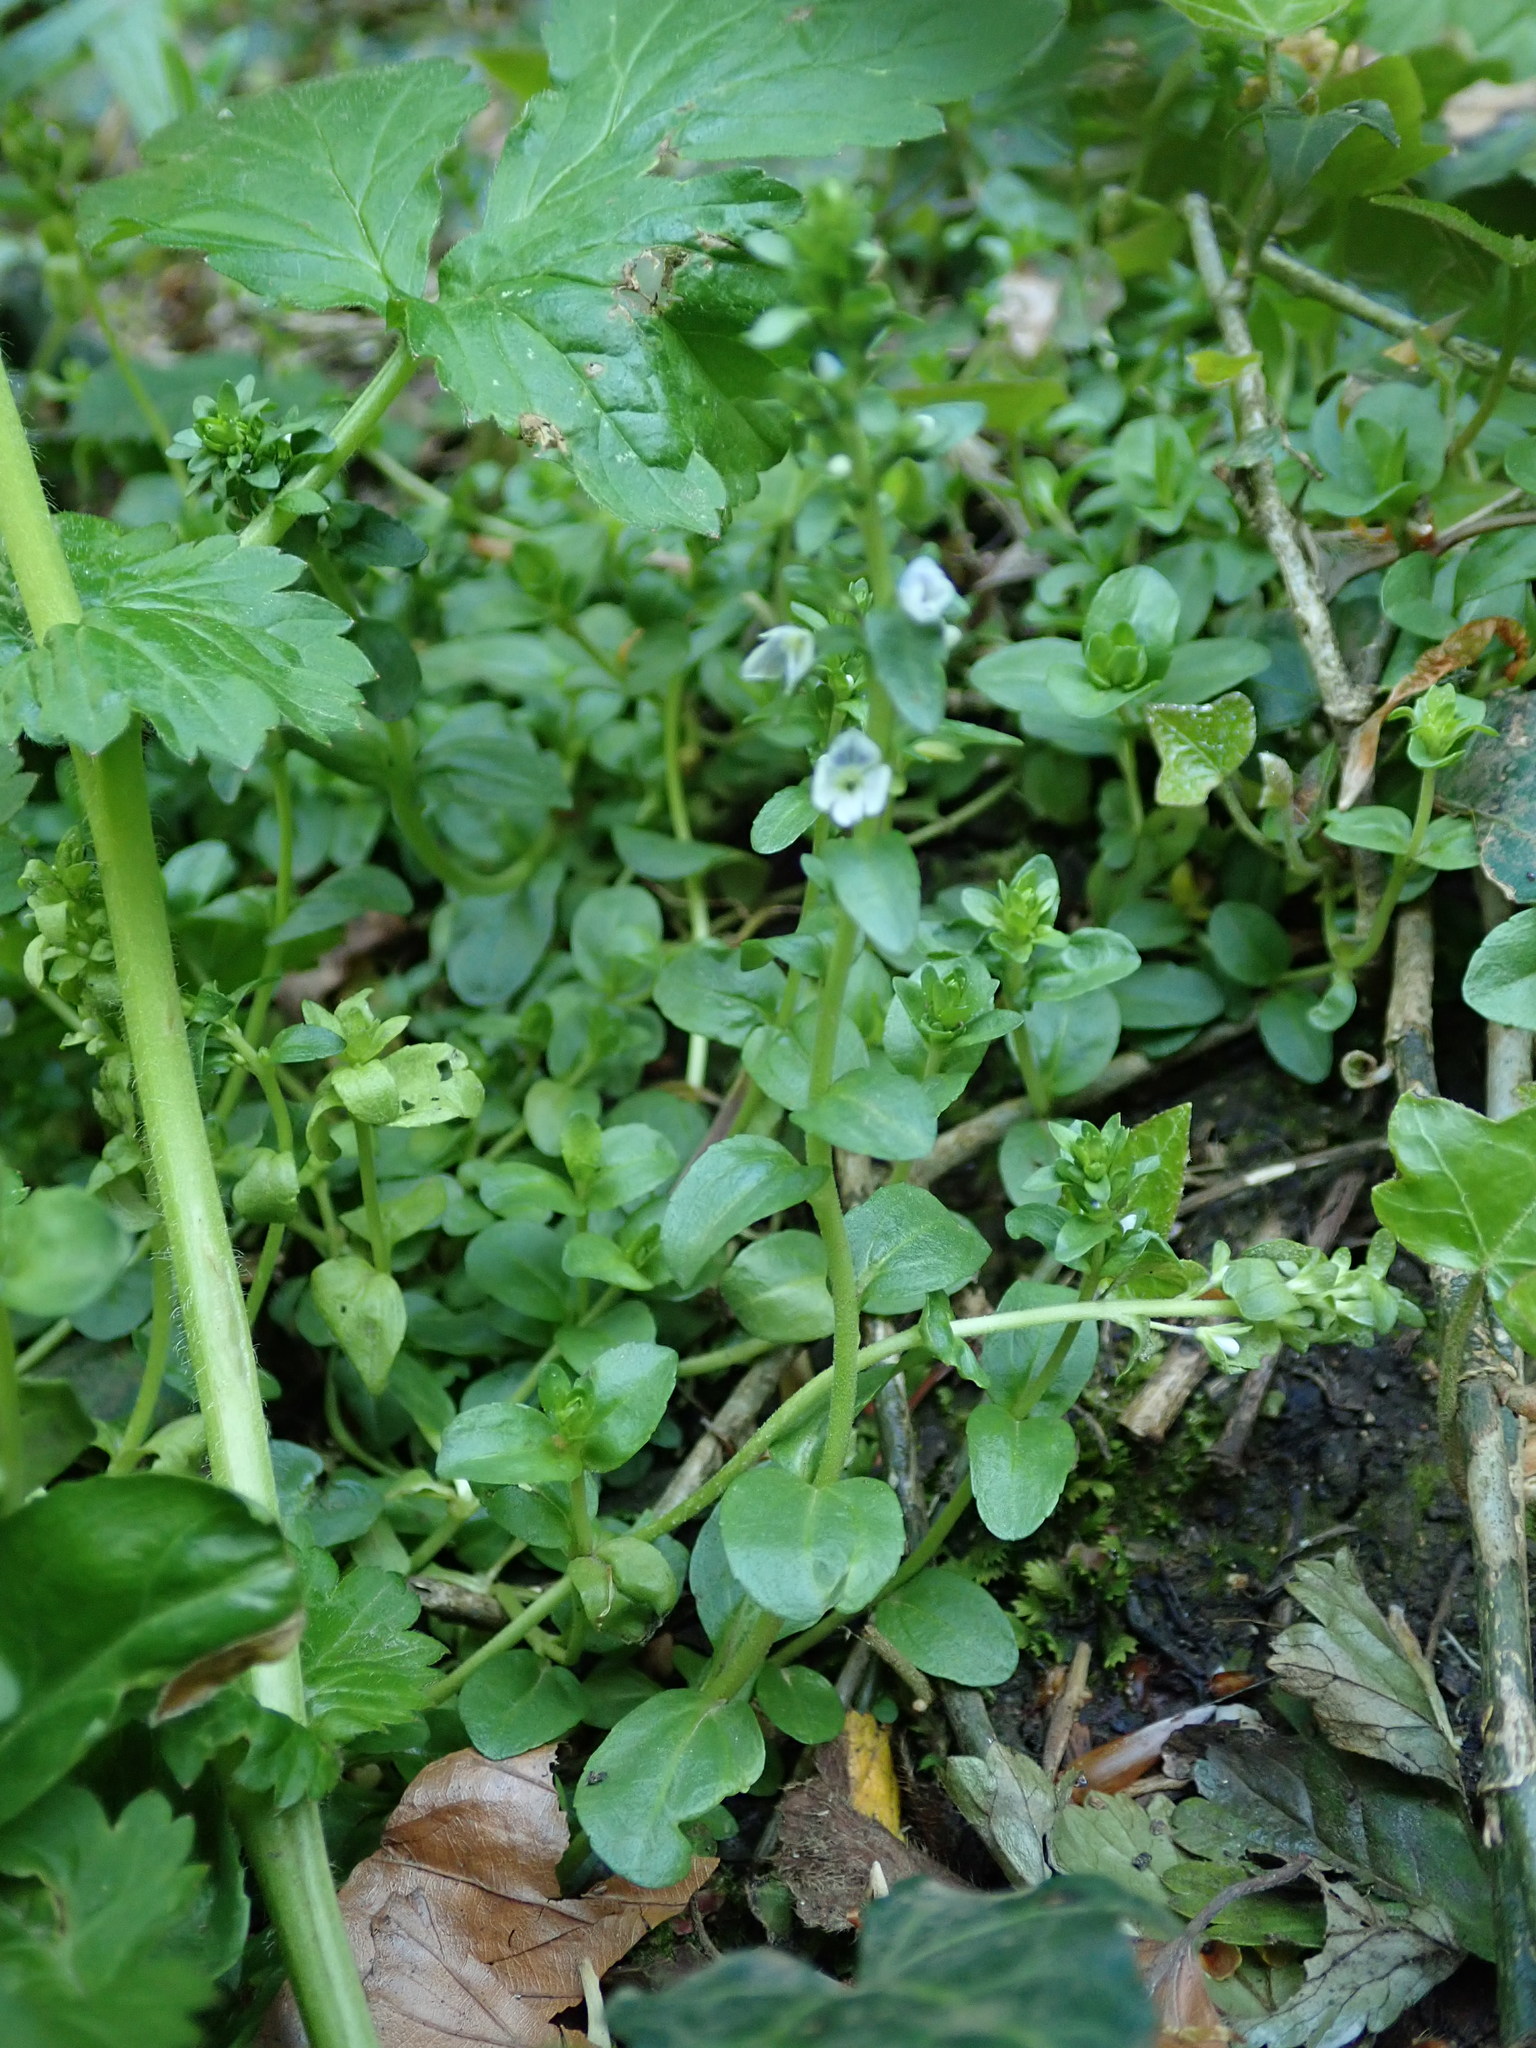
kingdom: Plantae
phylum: Tracheophyta
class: Magnoliopsida
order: Lamiales
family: Plantaginaceae
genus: Veronica
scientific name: Veronica serpyllifolia
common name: Thyme-leaved speedwell
